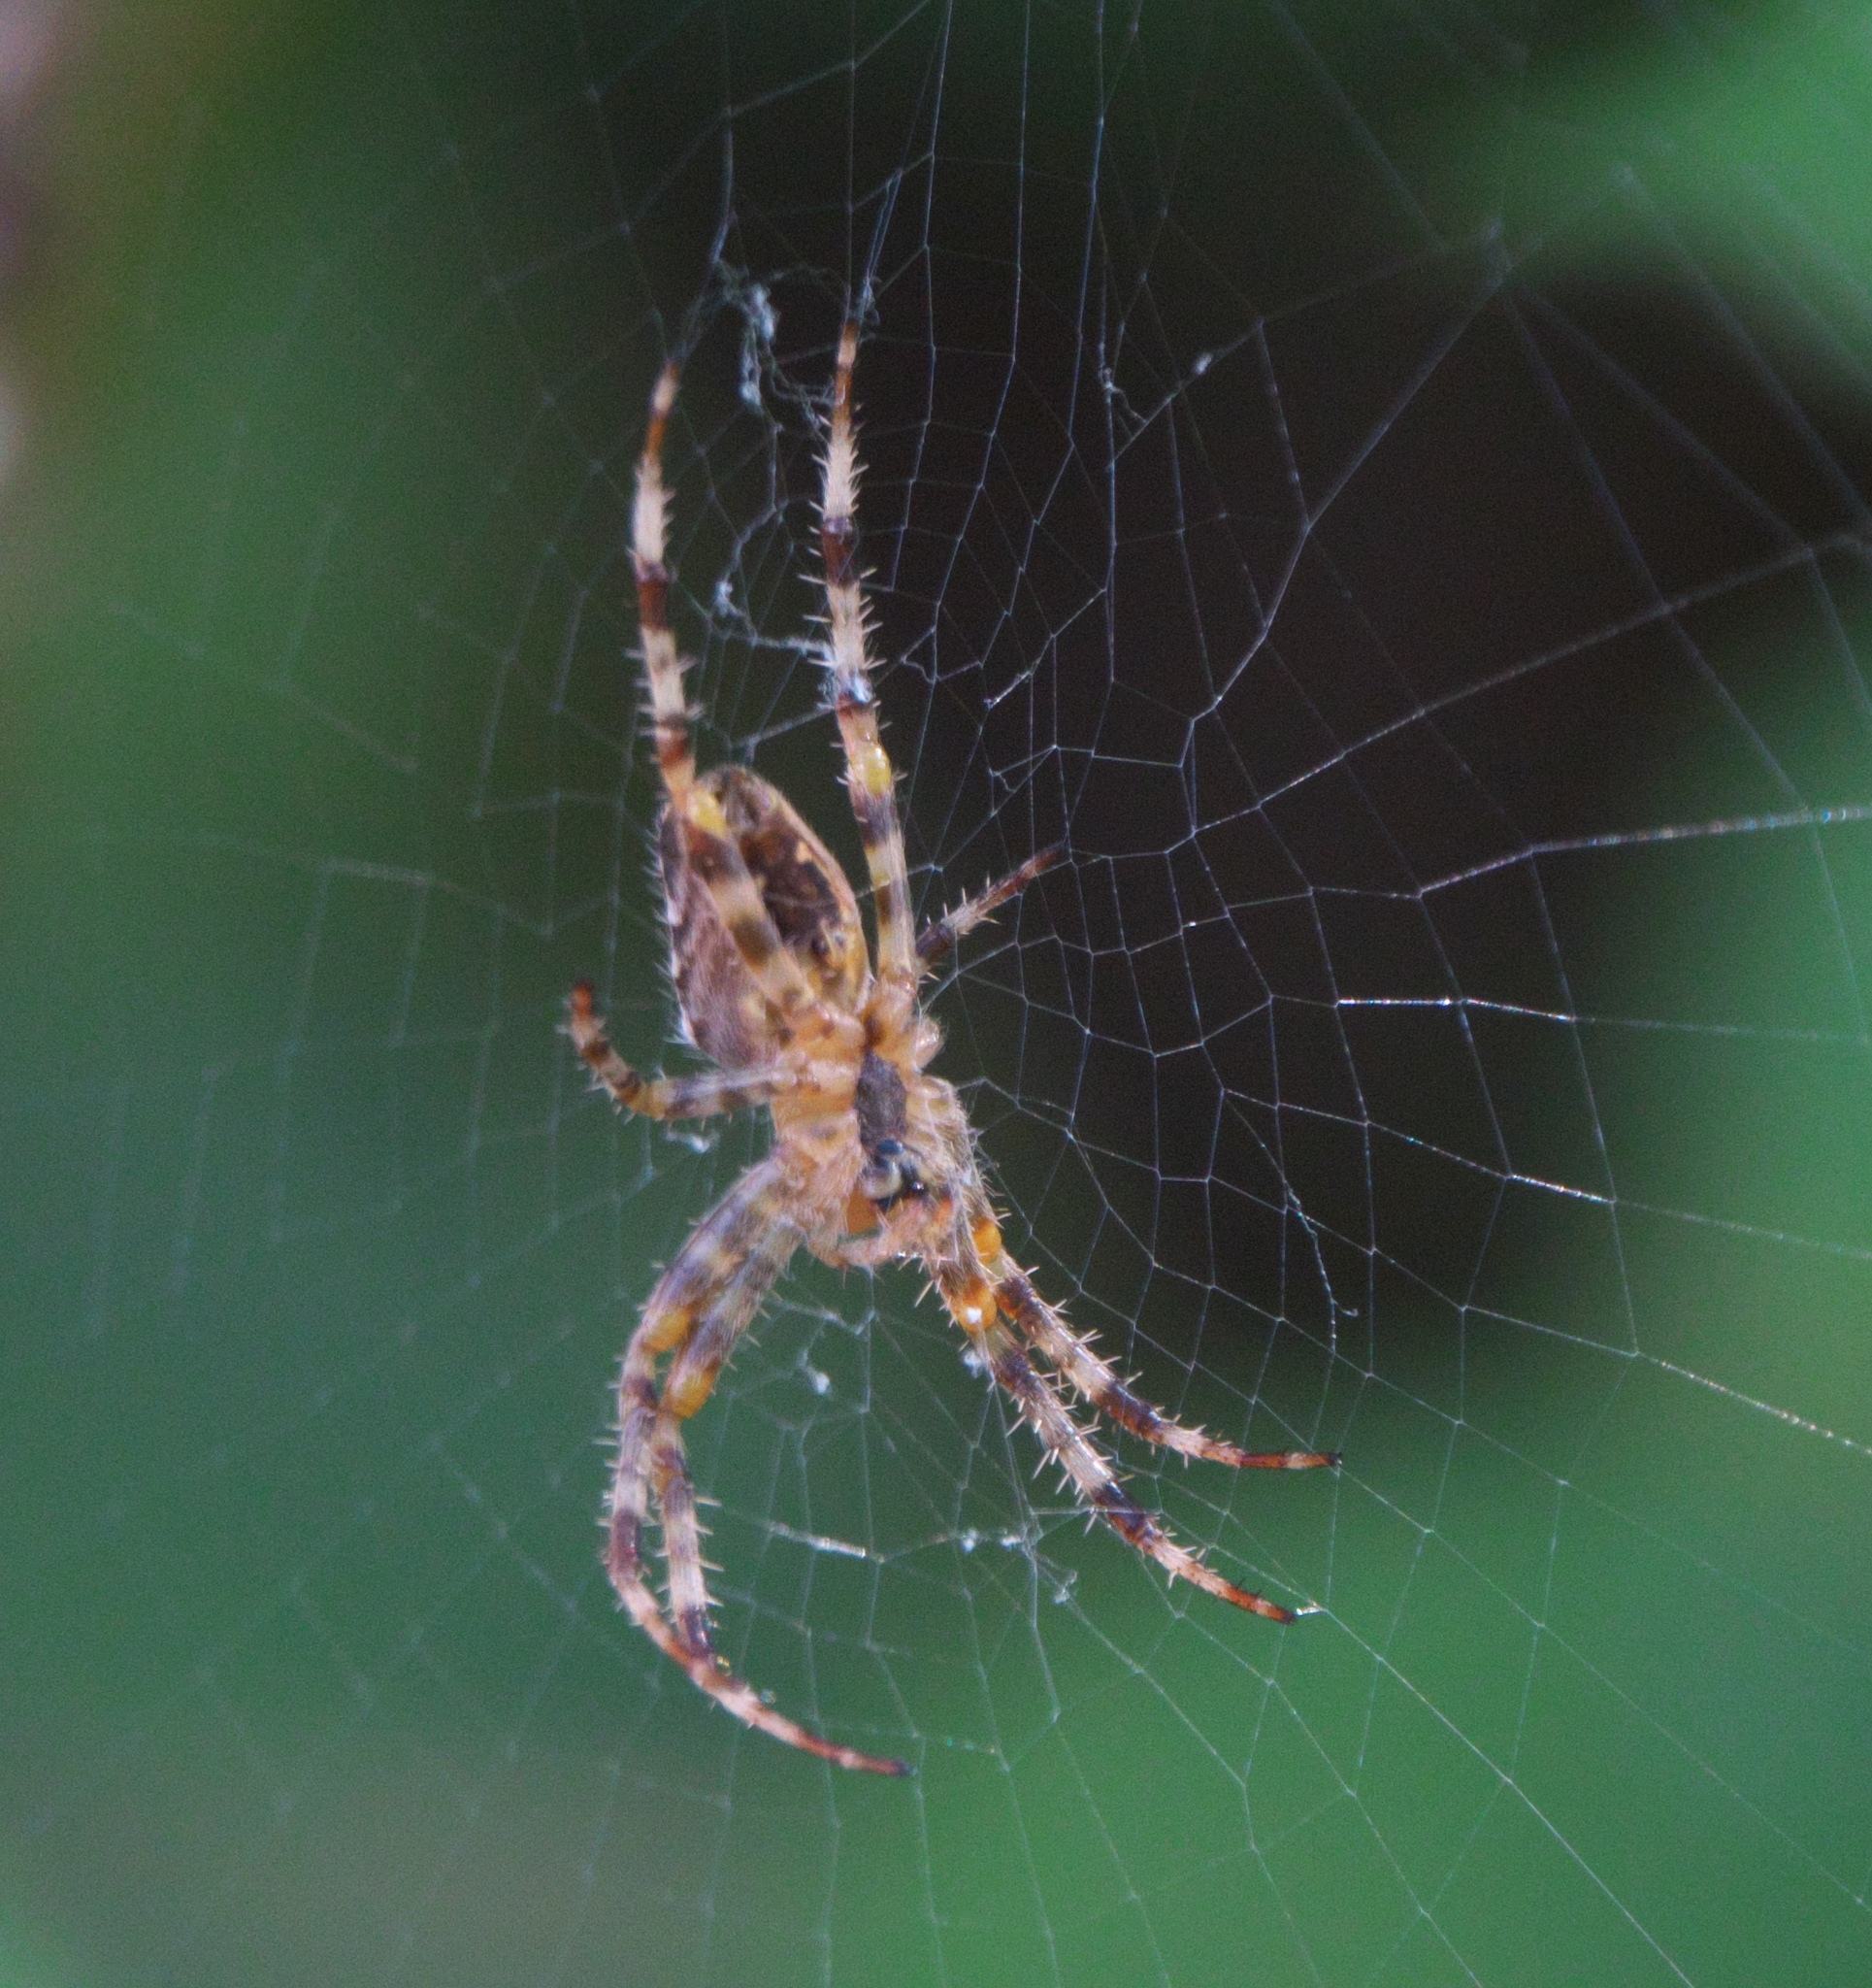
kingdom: Animalia
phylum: Arthropoda
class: Arachnida
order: Araneae
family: Araneidae
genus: Araneus
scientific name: Araneus diadematus
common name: Cross orbweaver
